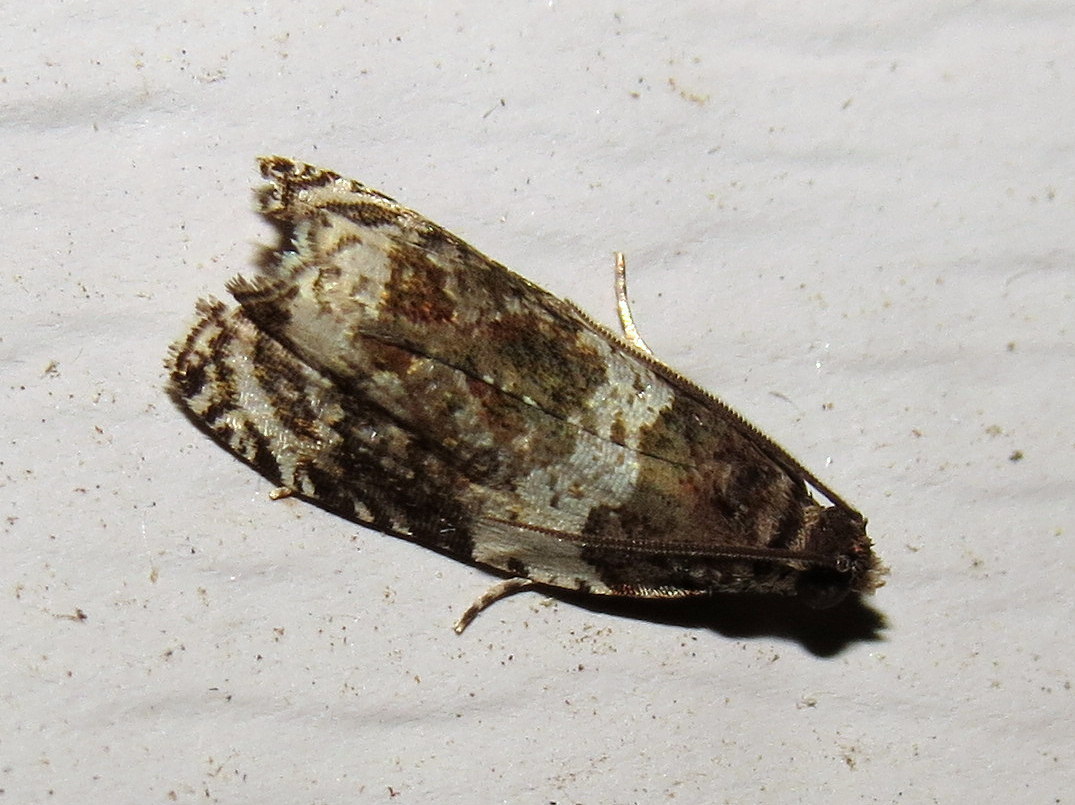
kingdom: Animalia
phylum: Arthropoda
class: Insecta
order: Lepidoptera
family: Tortricidae
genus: Olethreutes
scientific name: Olethreutes fasciatana
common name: Banded olethreutes moth
